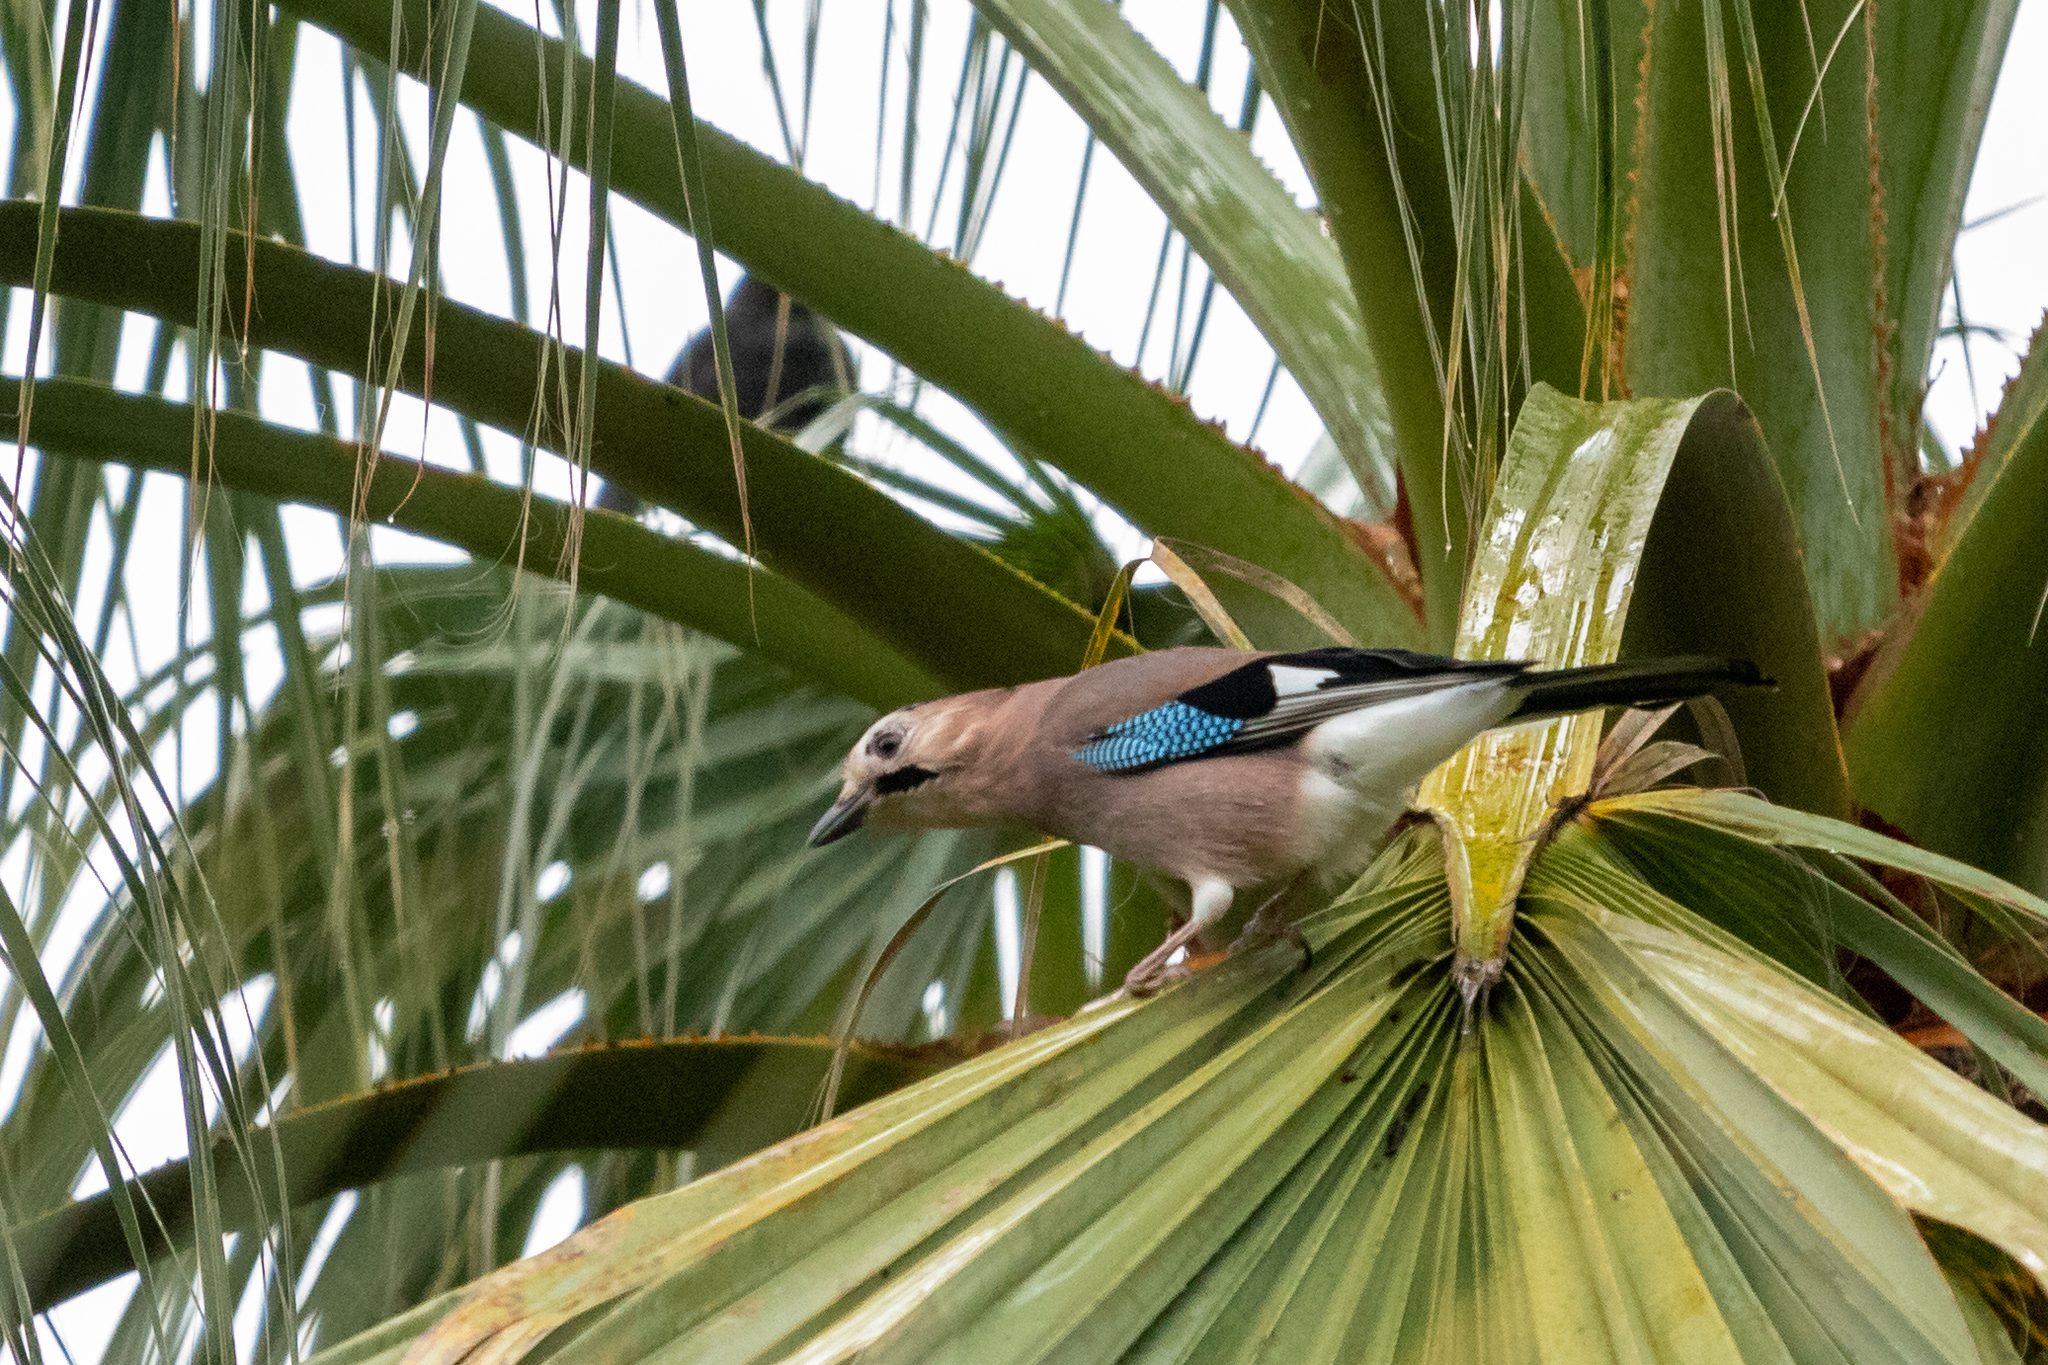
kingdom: Animalia
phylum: Chordata
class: Aves
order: Passeriformes
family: Corvidae
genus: Garrulus
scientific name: Garrulus glandarius
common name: Eurasian jay
